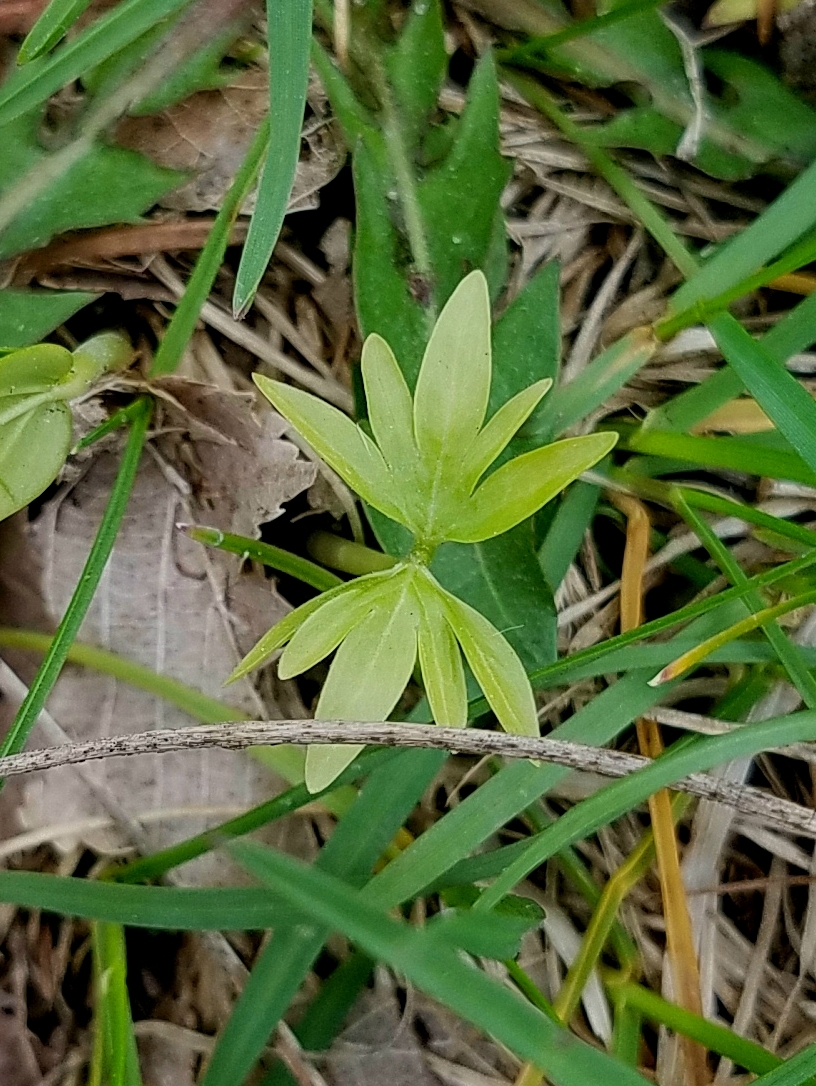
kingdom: Plantae
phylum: Tracheophyta
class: Magnoliopsida
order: Malvales
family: Malvaceae
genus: Tilia
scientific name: Tilia americana
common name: Basswood
